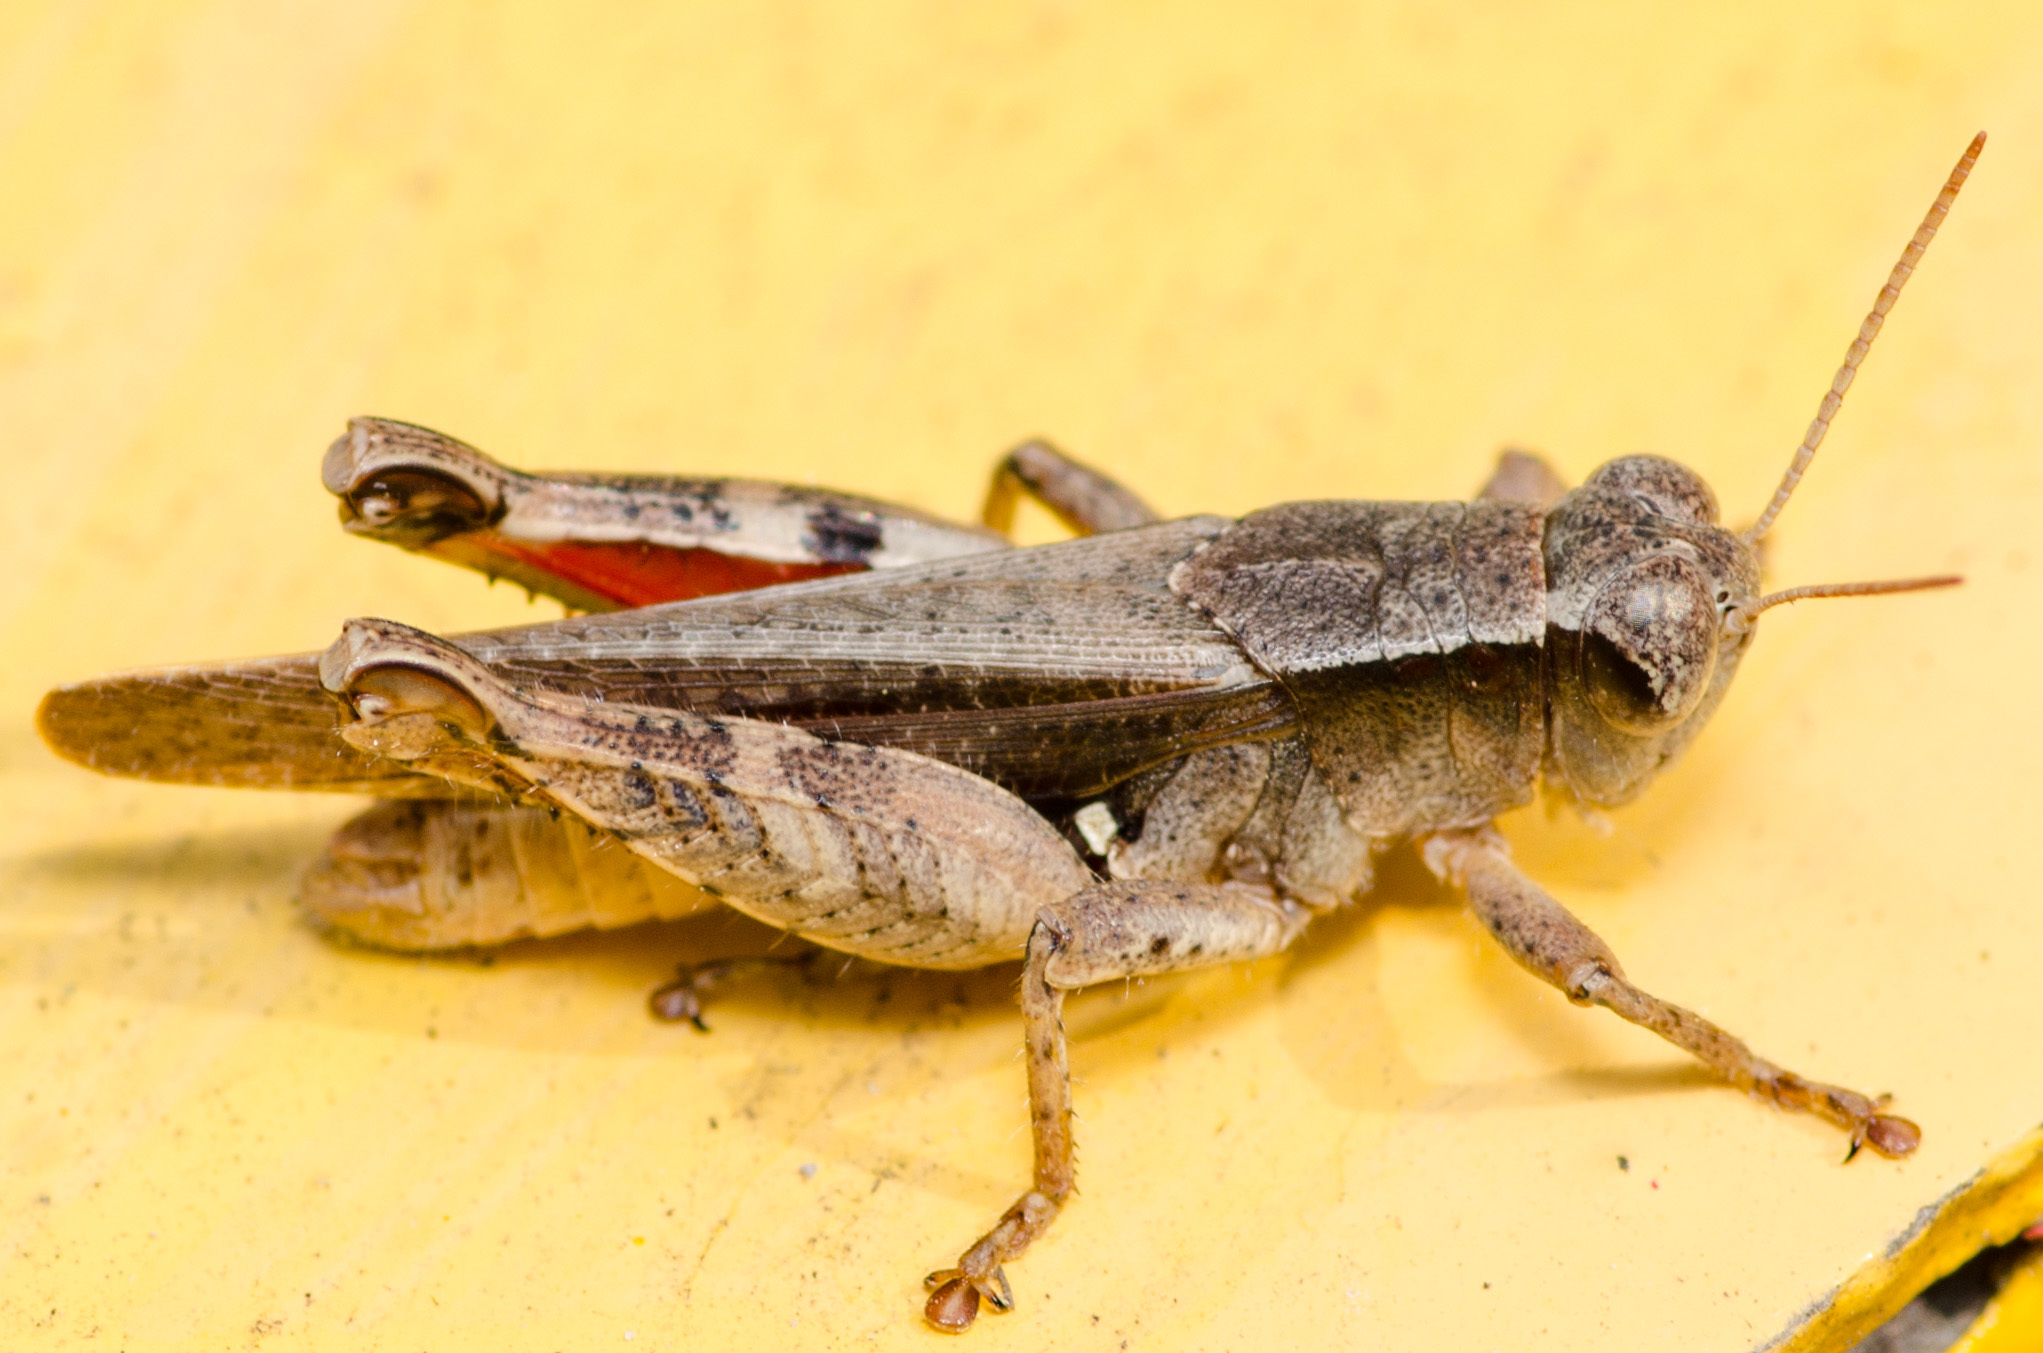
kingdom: Animalia
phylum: Arthropoda
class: Insecta
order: Orthoptera
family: Acrididae
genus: Aidemona
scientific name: Aidemona azteca
